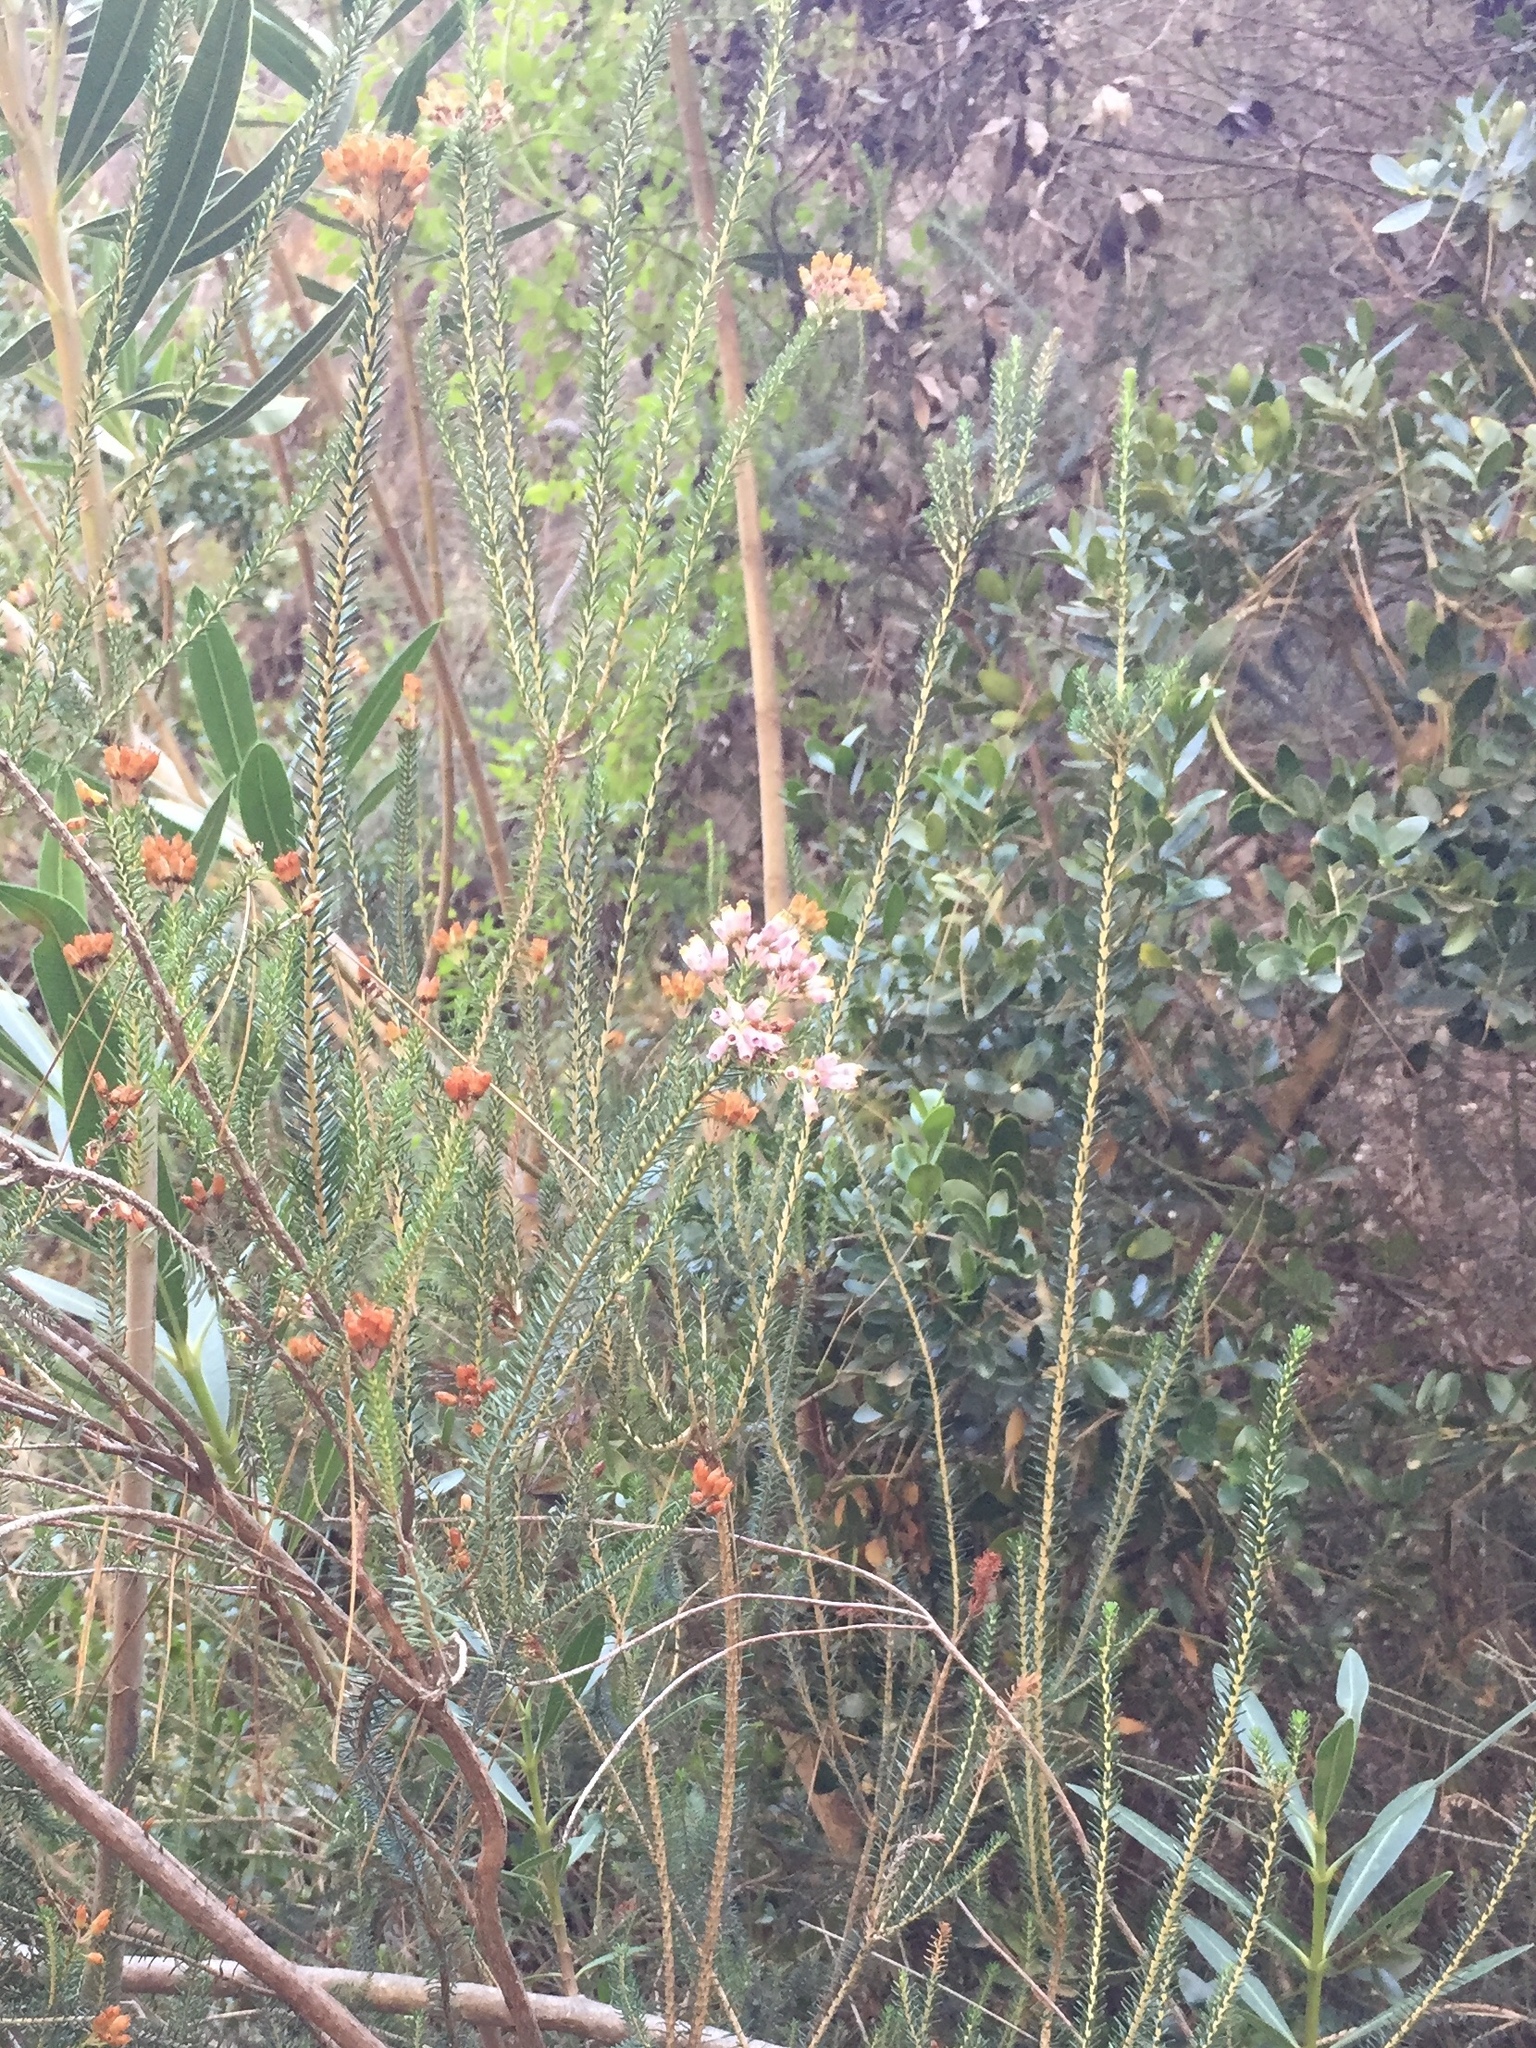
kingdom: Plantae
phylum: Tracheophyta
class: Magnoliopsida
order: Ericales
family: Ericaceae
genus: Erica
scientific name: Erica terminalis
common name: Corsican heath
